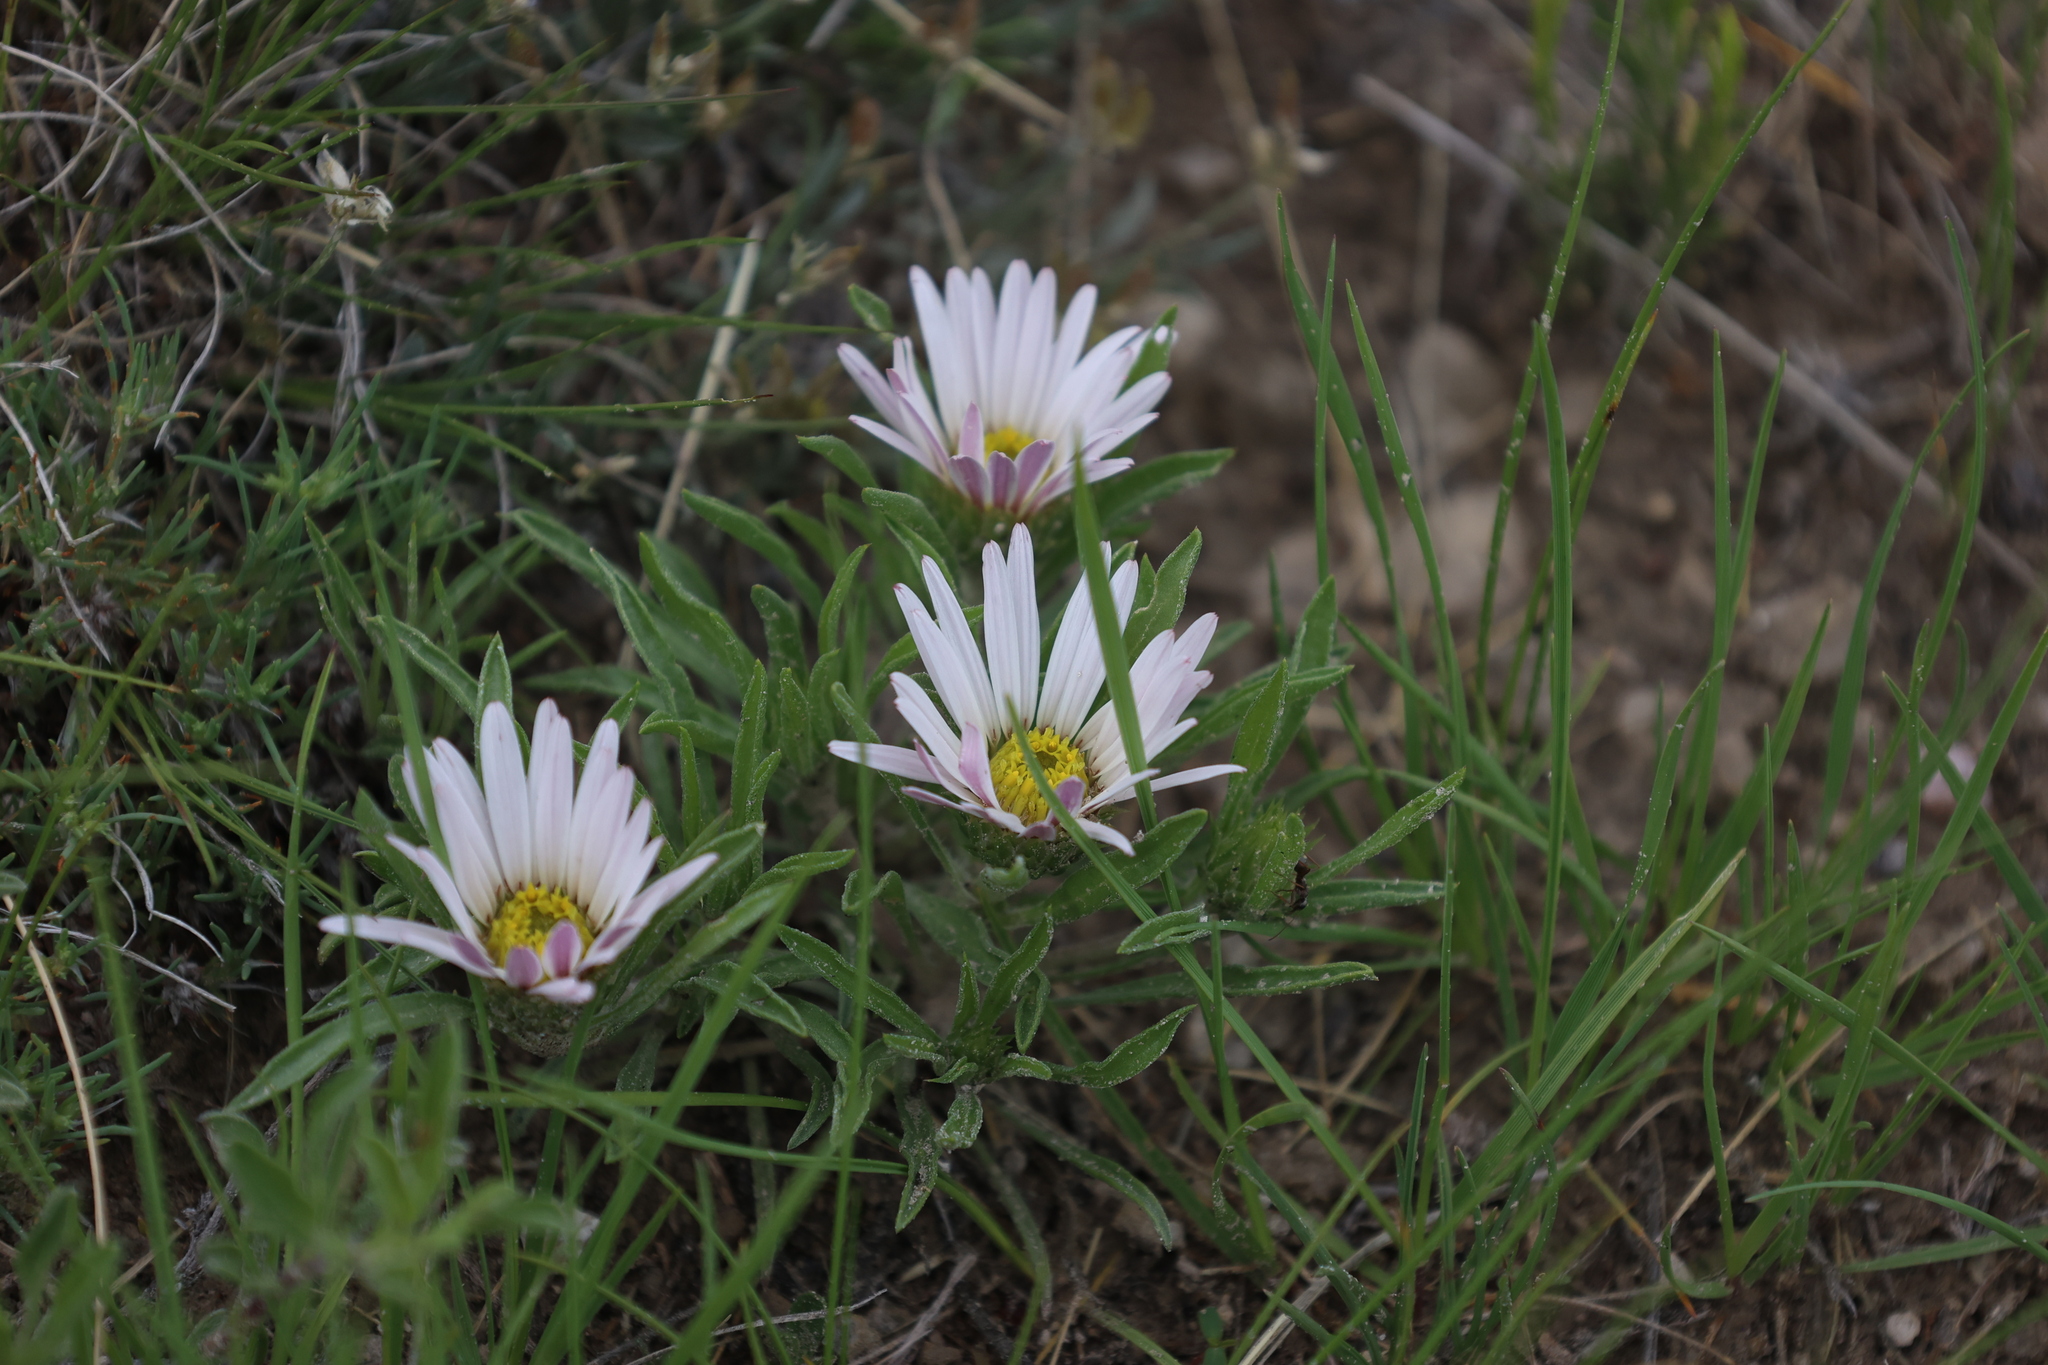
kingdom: Plantae
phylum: Tracheophyta
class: Magnoliopsida
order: Asterales
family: Asteraceae
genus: Townsendia
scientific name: Townsendia grandiflora
